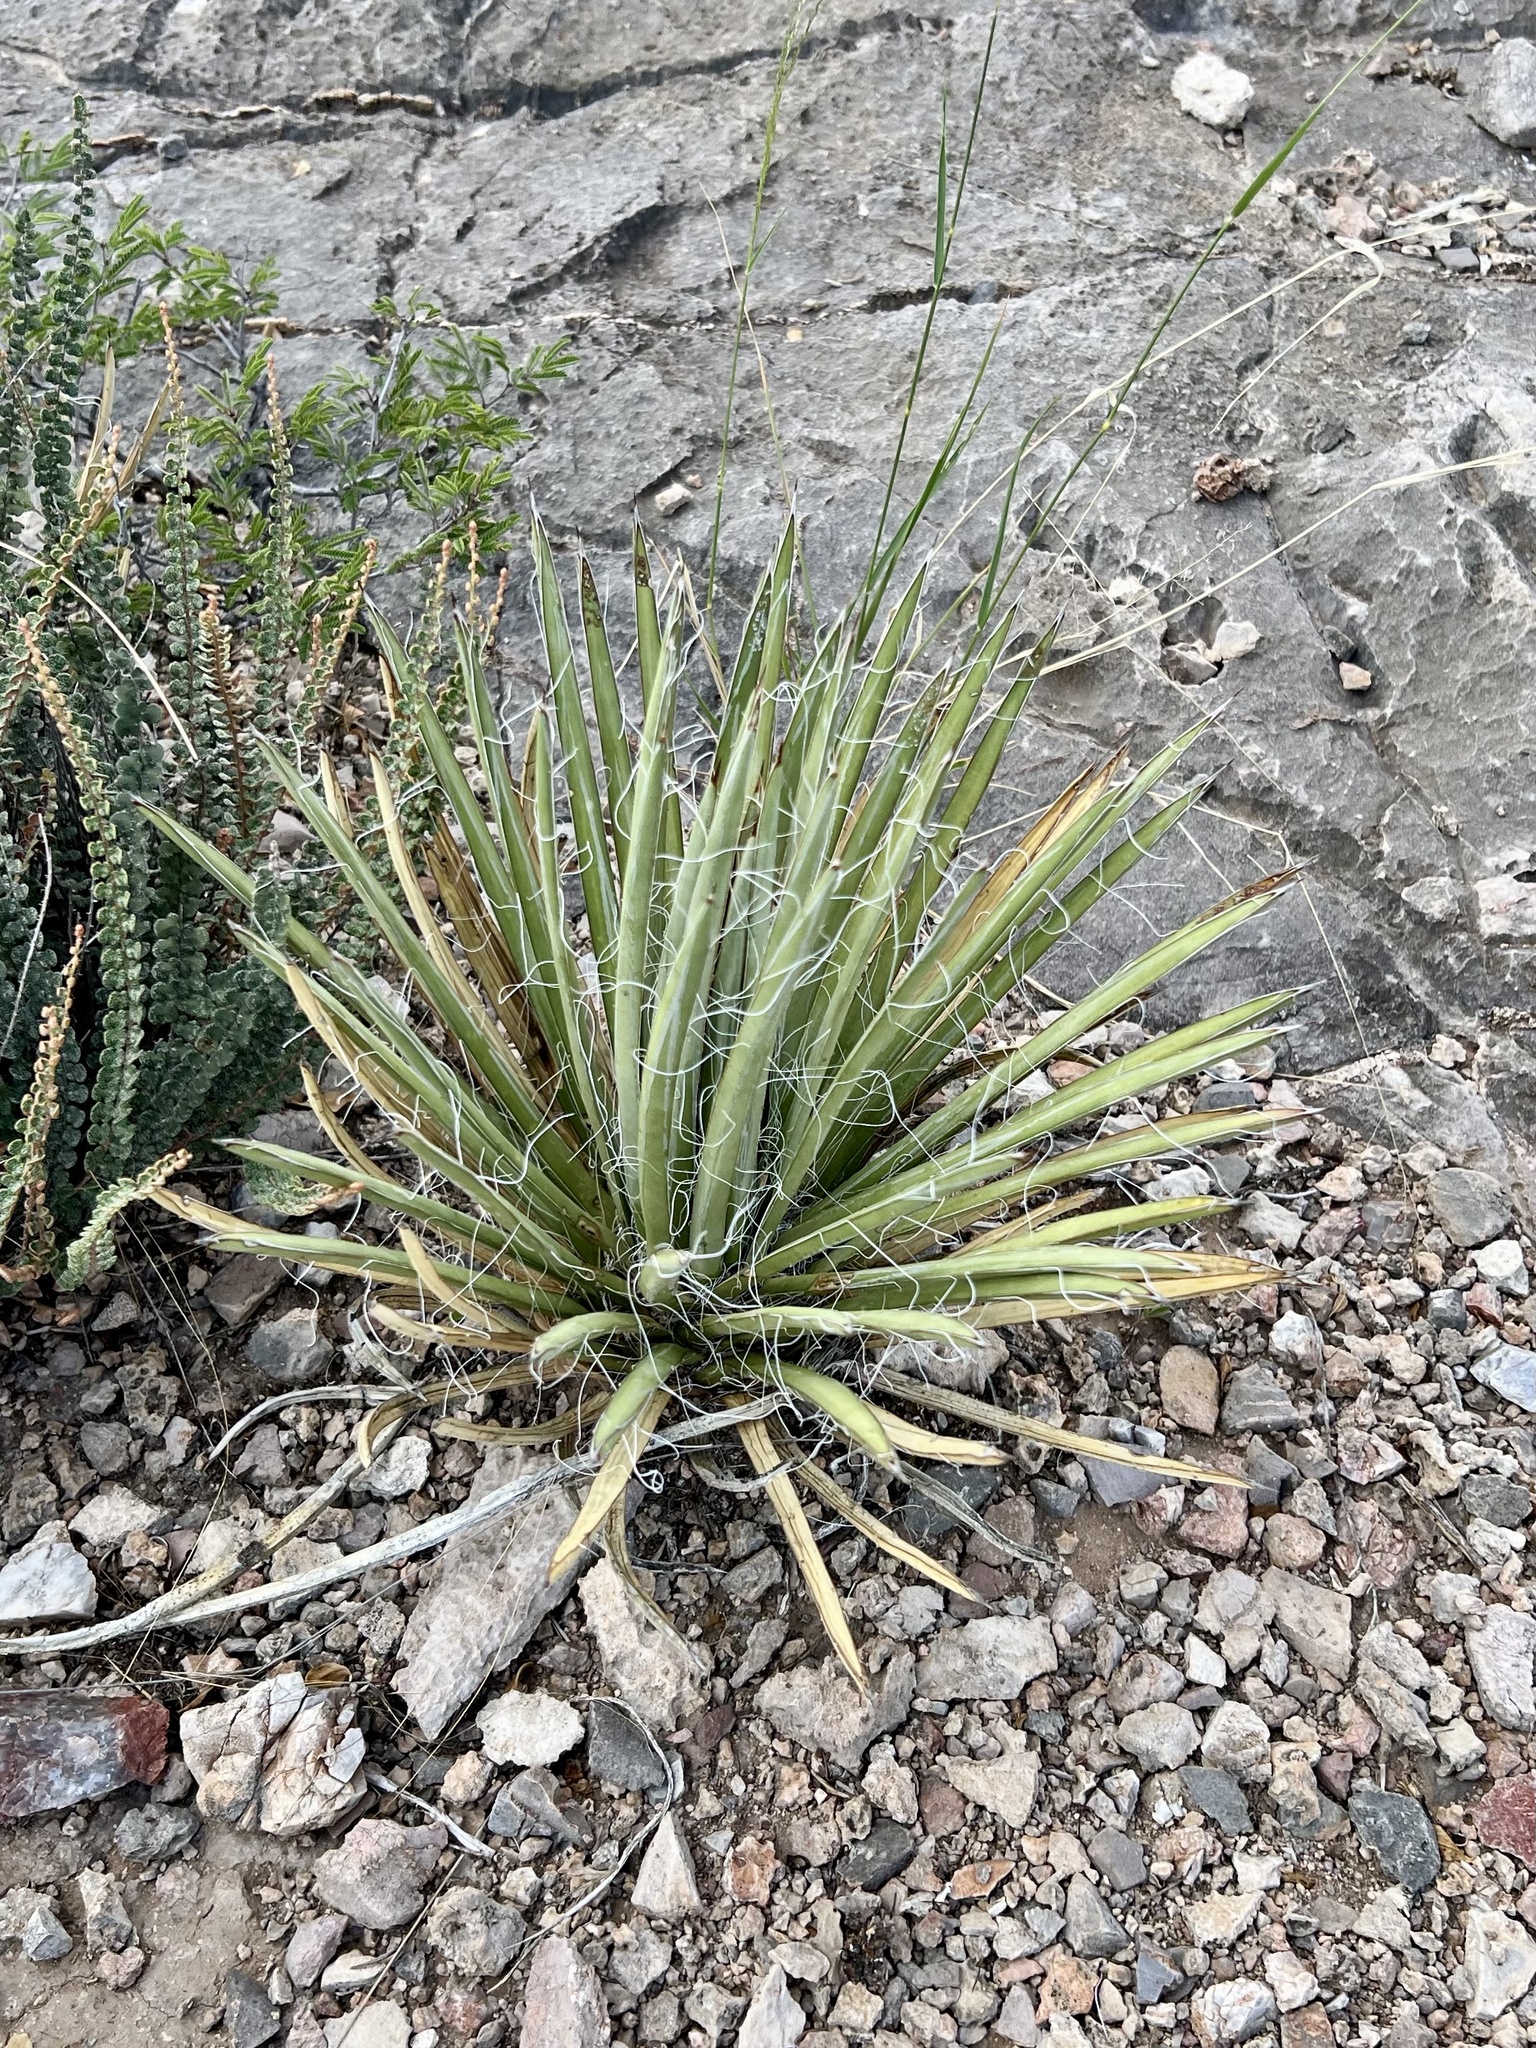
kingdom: Plantae
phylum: Tracheophyta
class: Liliopsida
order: Asparagales
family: Asparagaceae
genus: Agave
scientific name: Agave schottii
